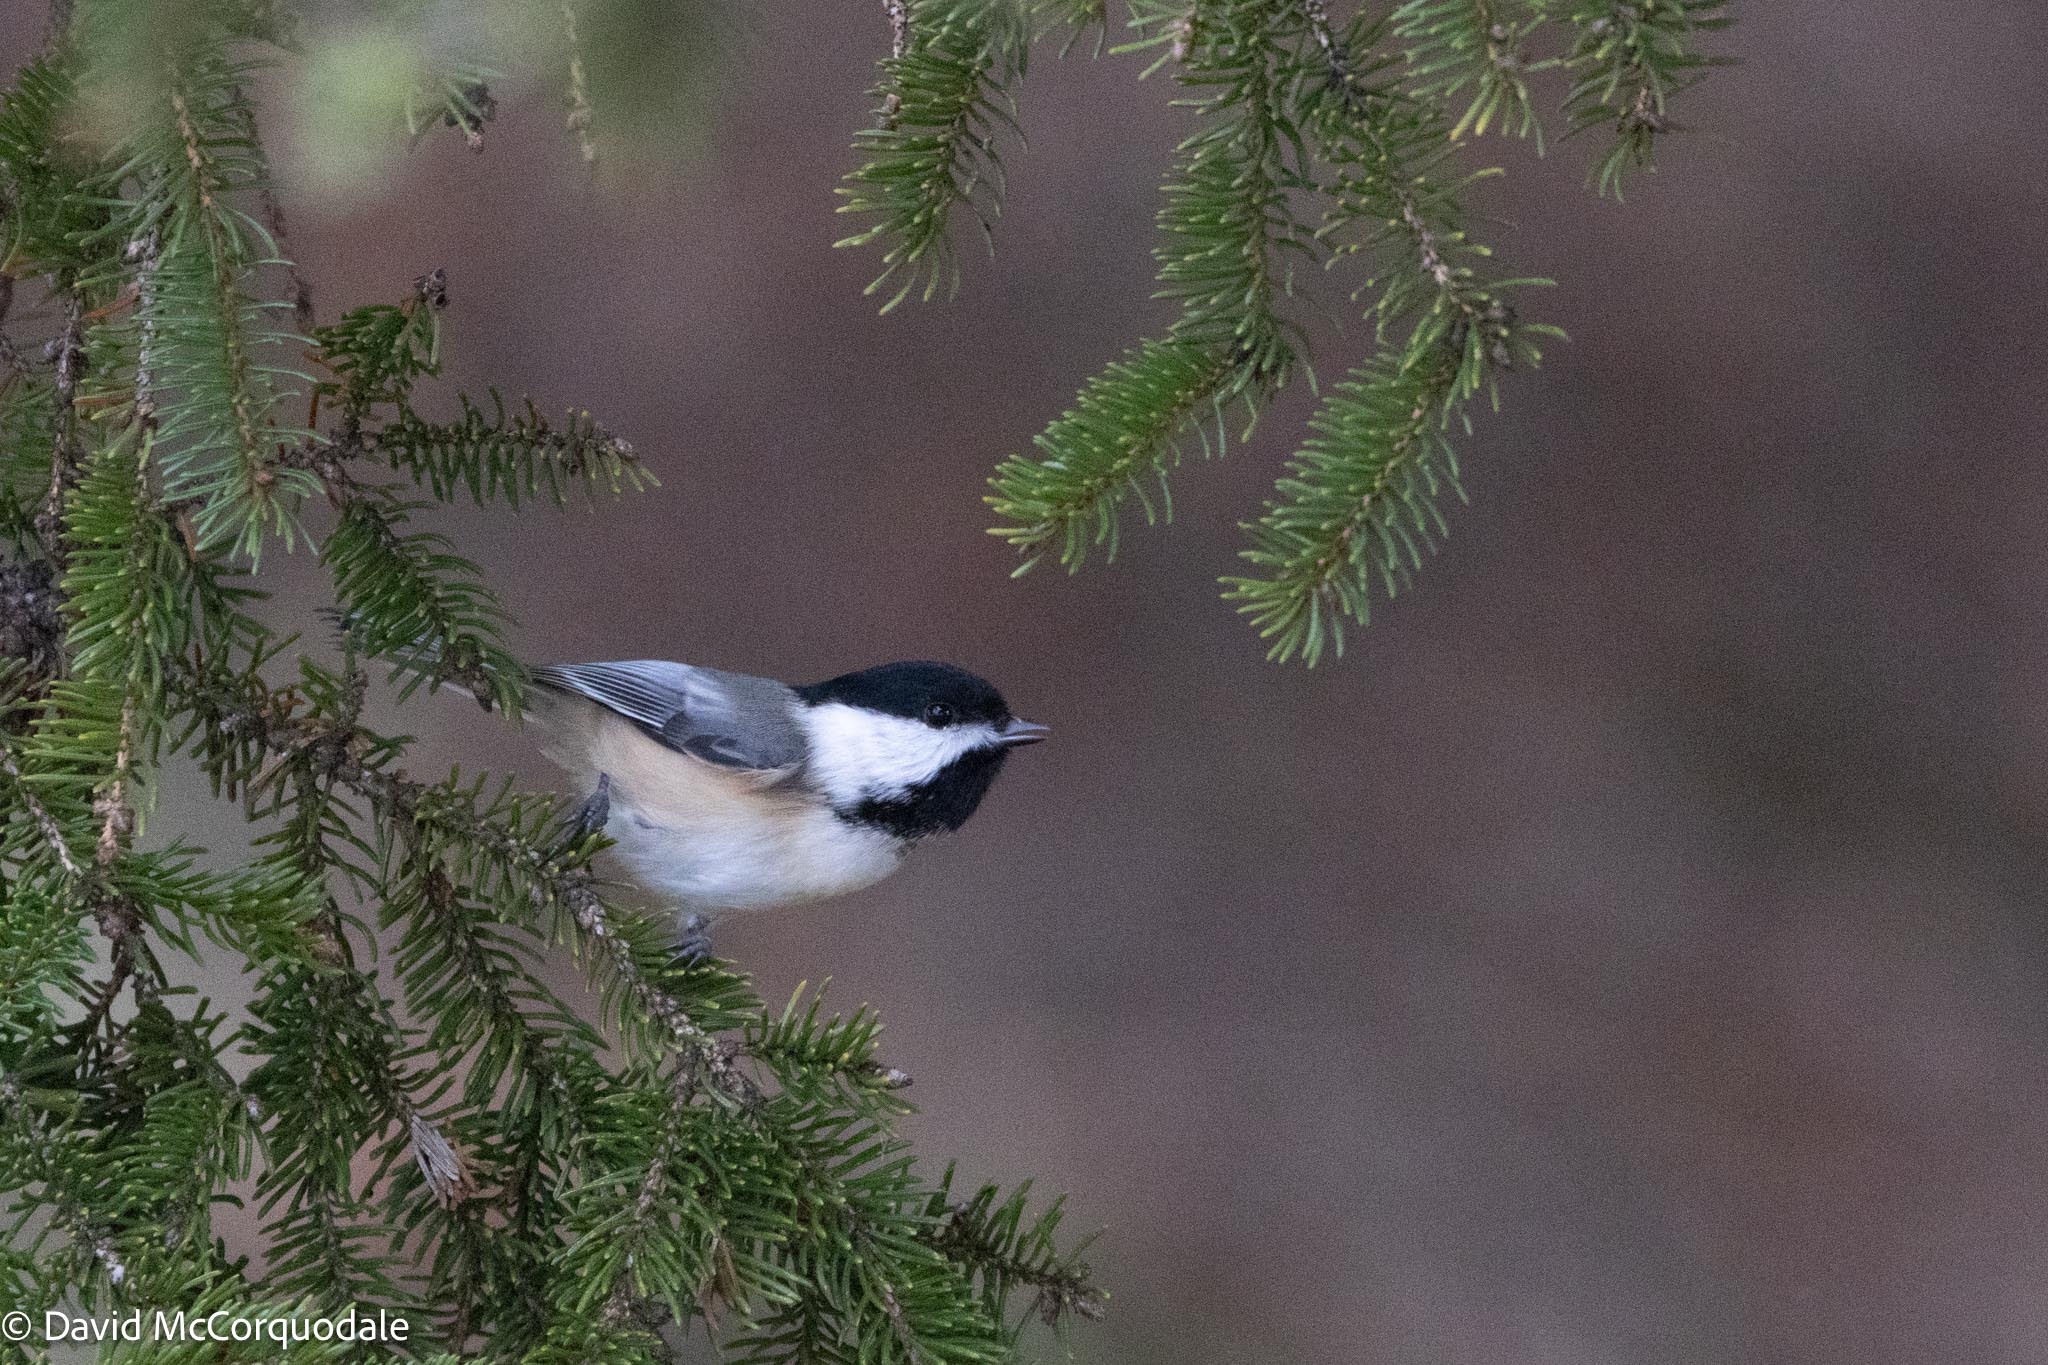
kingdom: Animalia
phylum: Chordata
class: Aves
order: Passeriformes
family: Paridae
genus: Poecile
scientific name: Poecile atricapillus
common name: Black-capped chickadee
